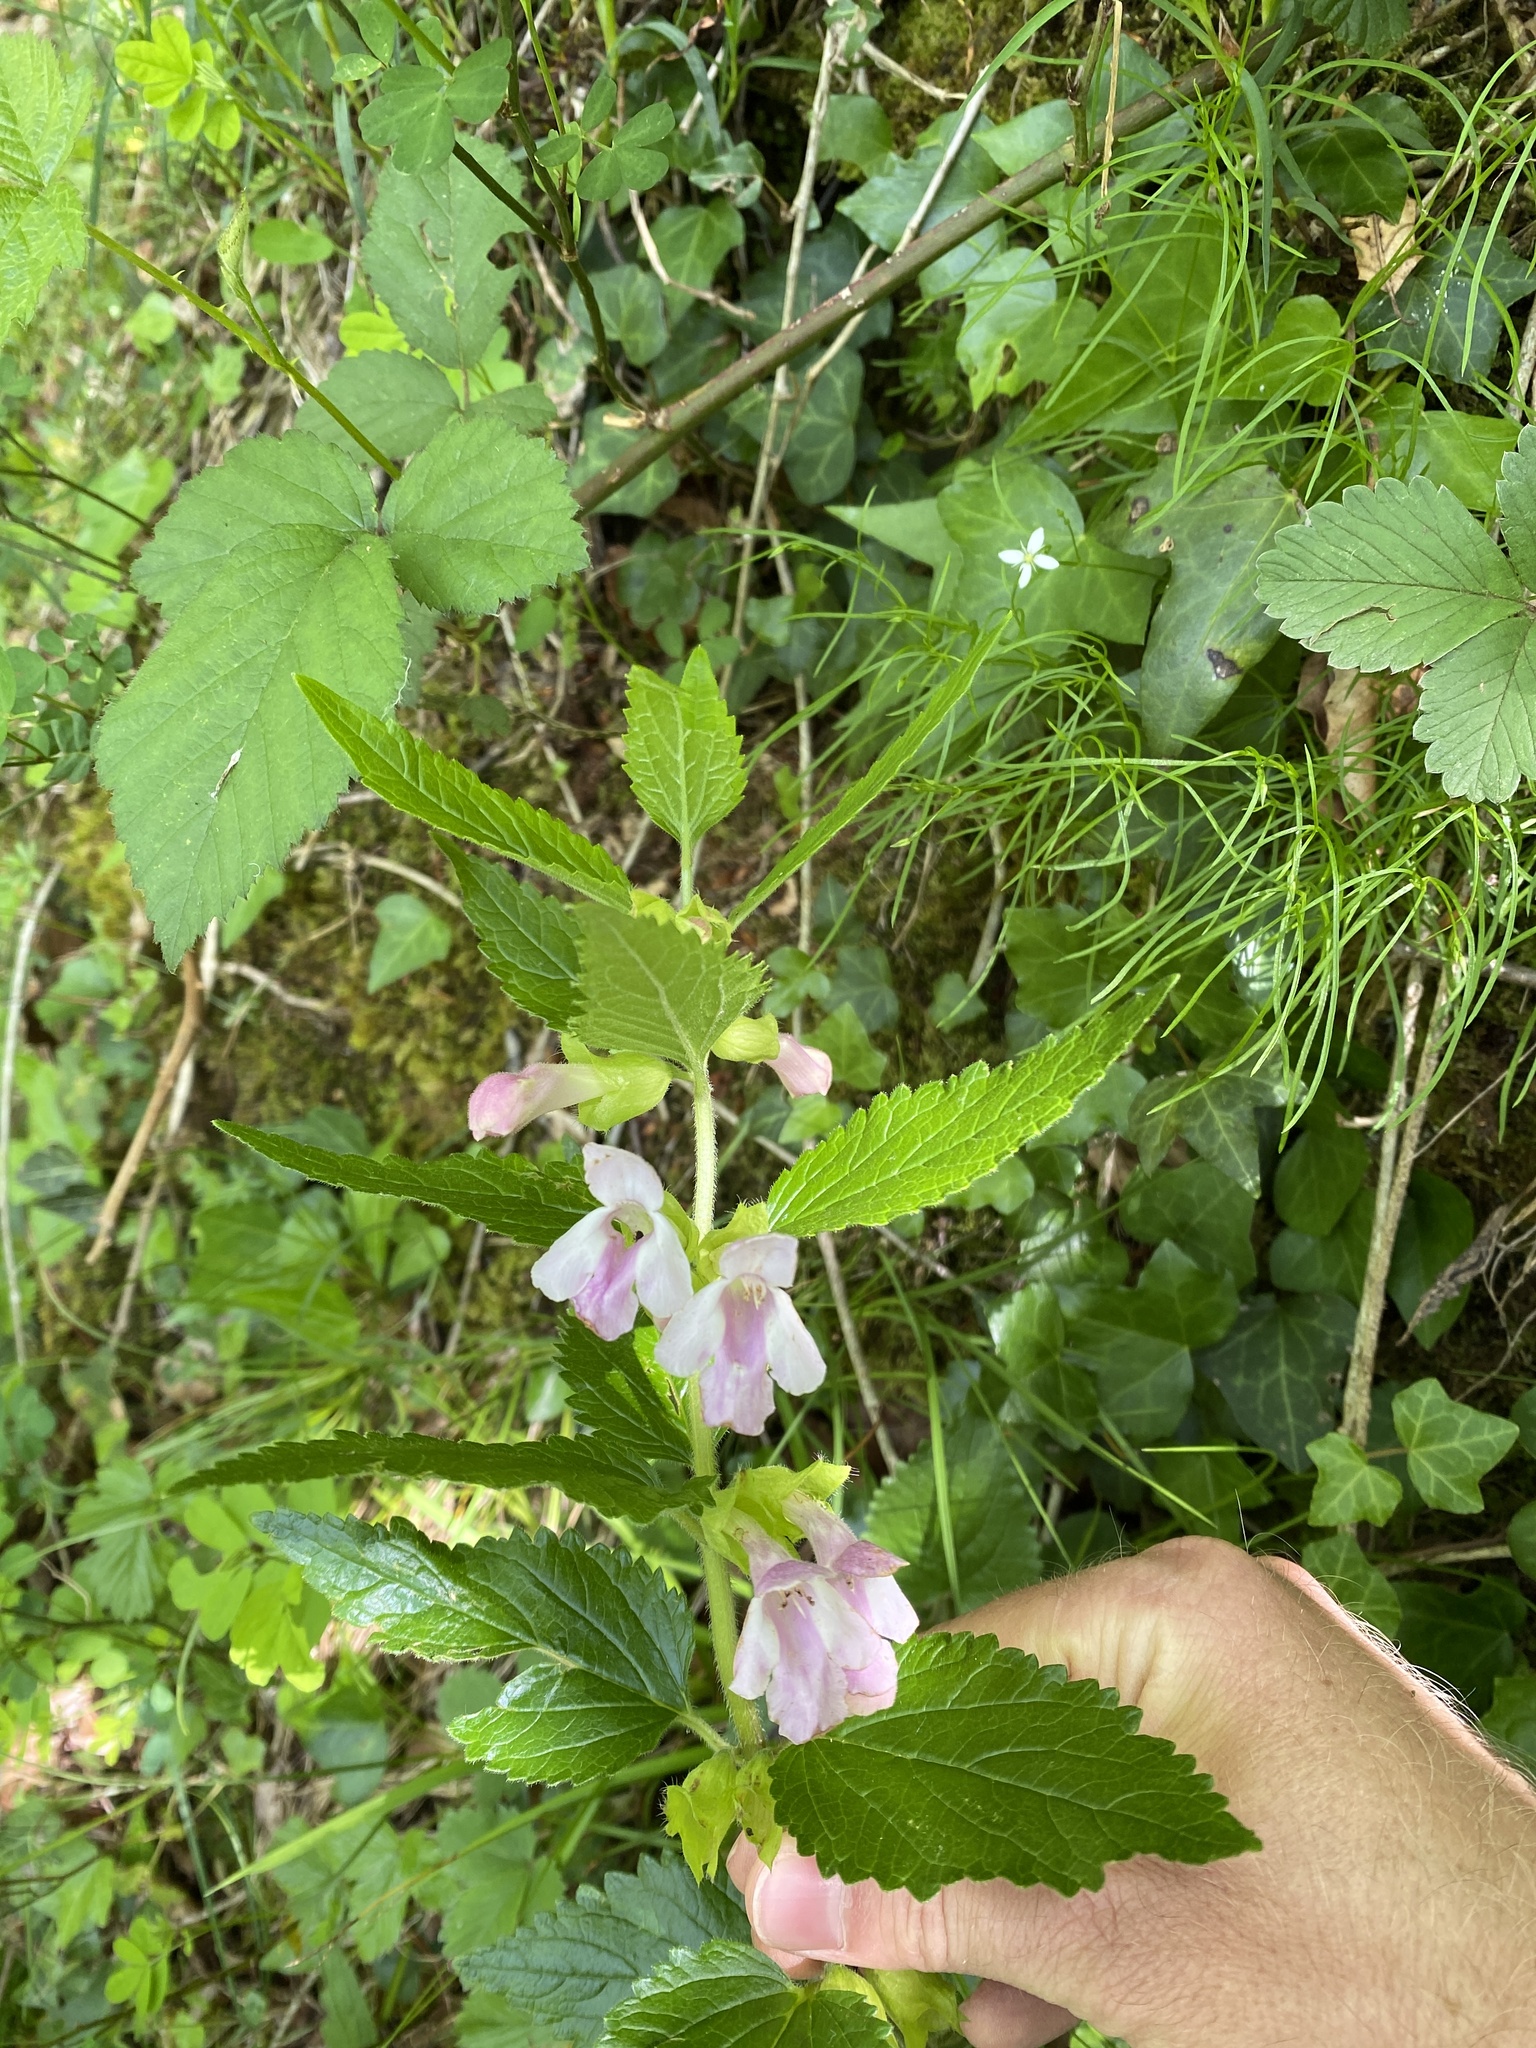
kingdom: Plantae
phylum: Tracheophyta
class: Magnoliopsida
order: Lamiales
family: Lamiaceae
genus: Melittis
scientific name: Melittis melissophyllum
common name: Bastard balm
